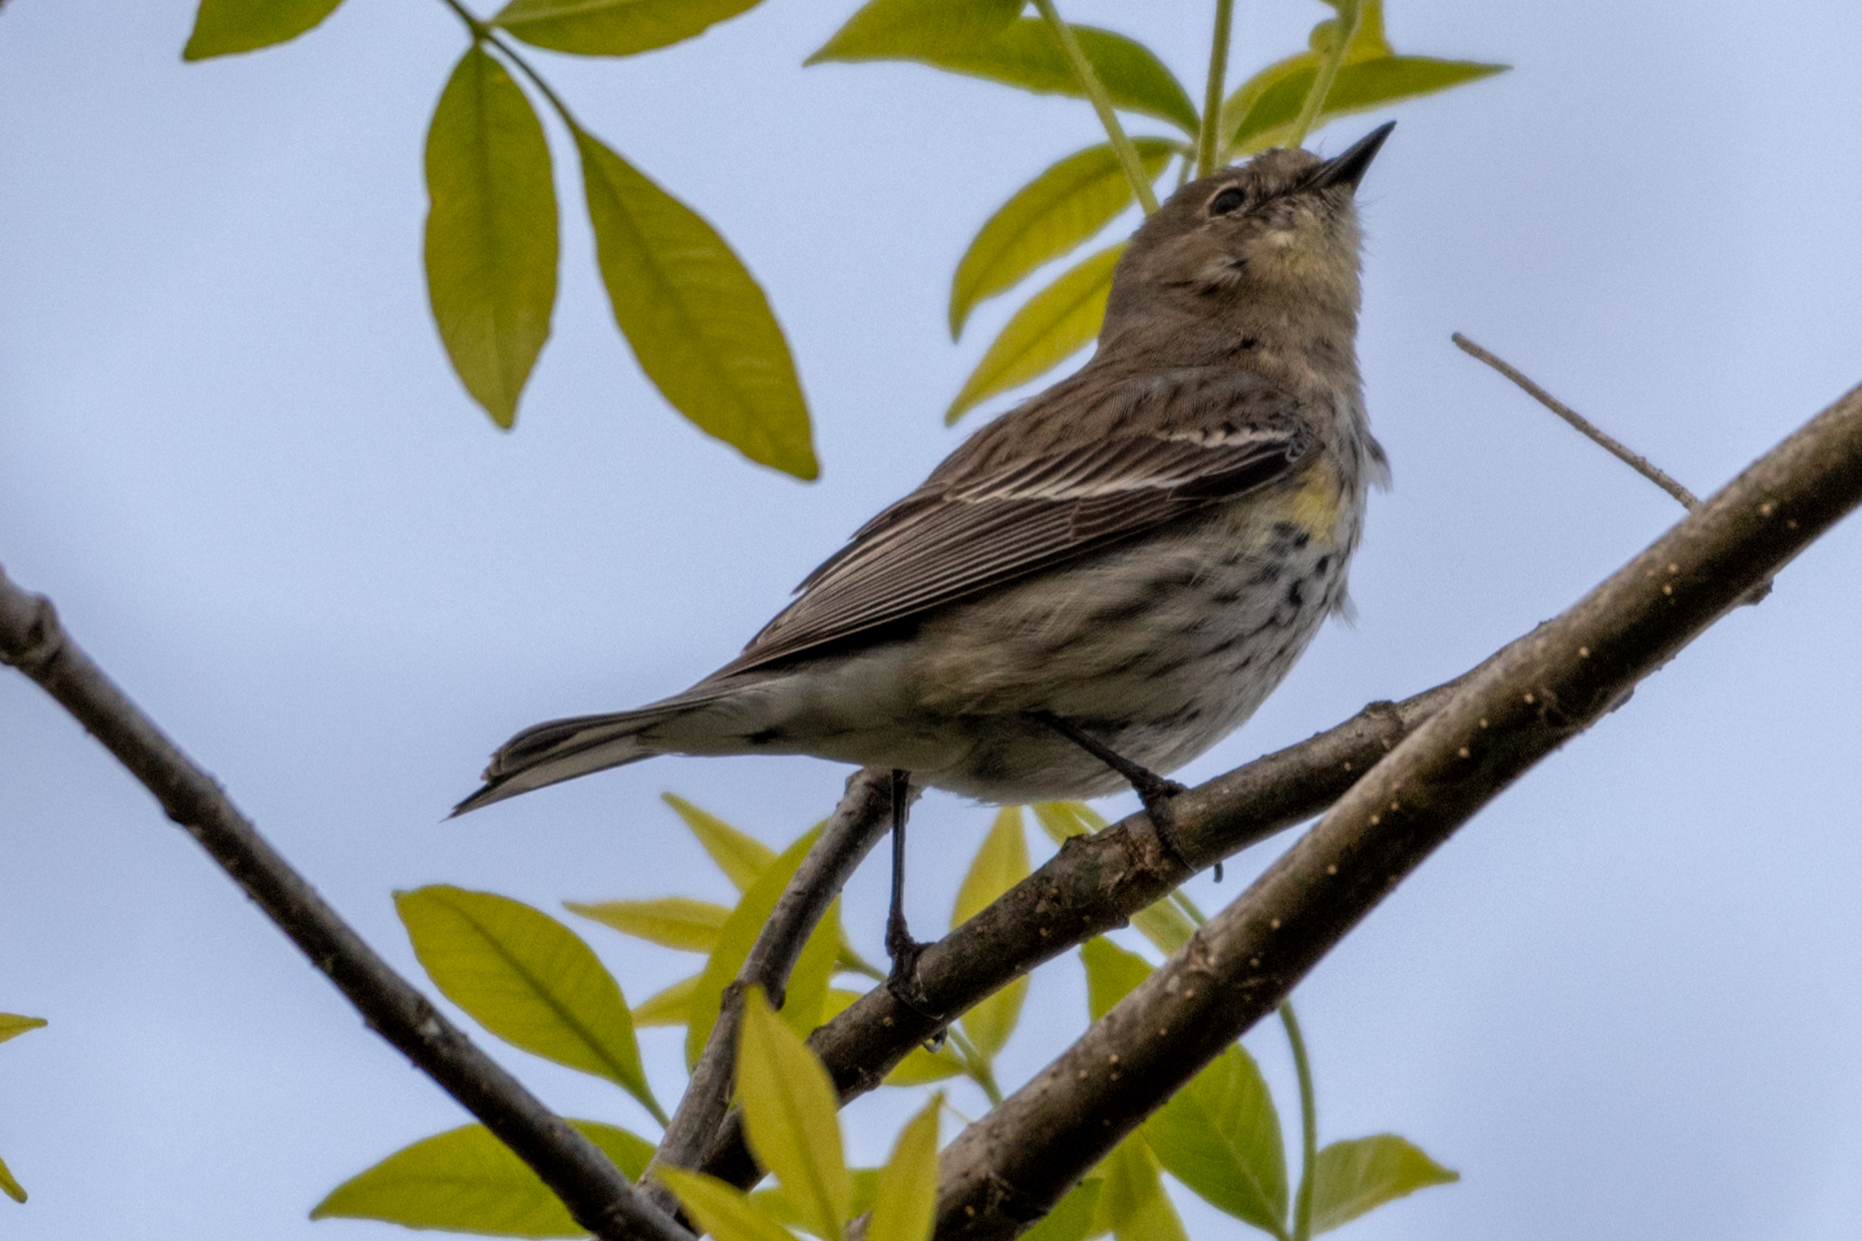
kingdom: Animalia
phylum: Chordata
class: Aves
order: Passeriformes
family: Parulidae
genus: Setophaga
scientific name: Setophaga coronata
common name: Myrtle warbler
